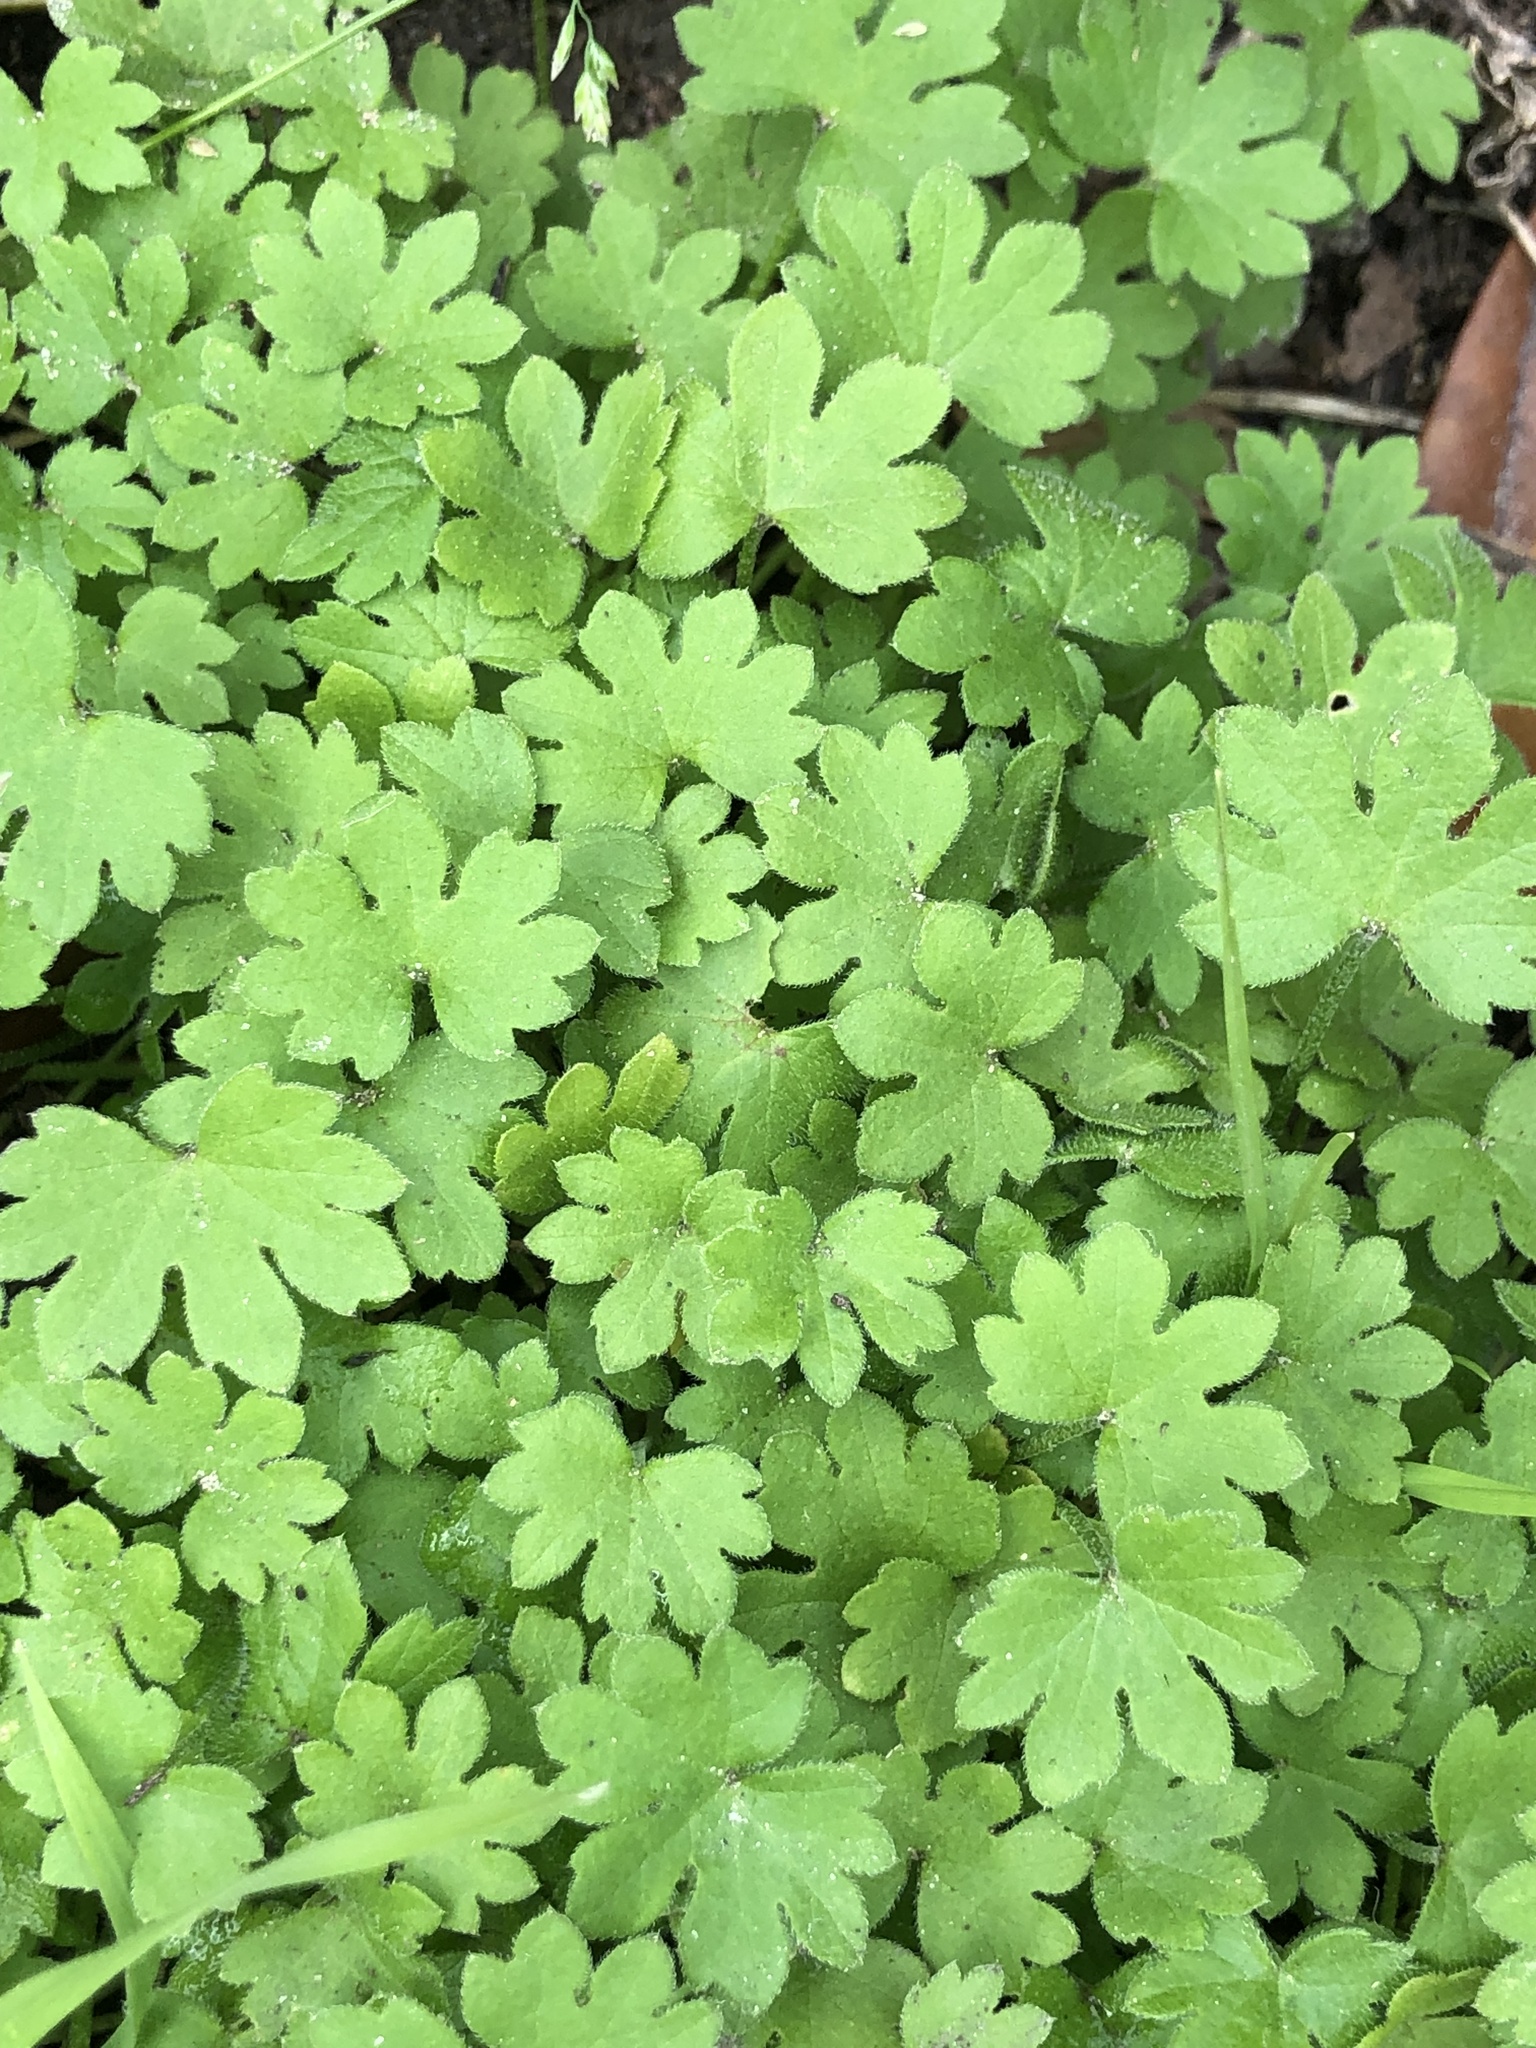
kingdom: Plantae
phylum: Tracheophyta
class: Magnoliopsida
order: Apiales
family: Apiaceae
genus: Bowlesia
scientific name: Bowlesia incana
